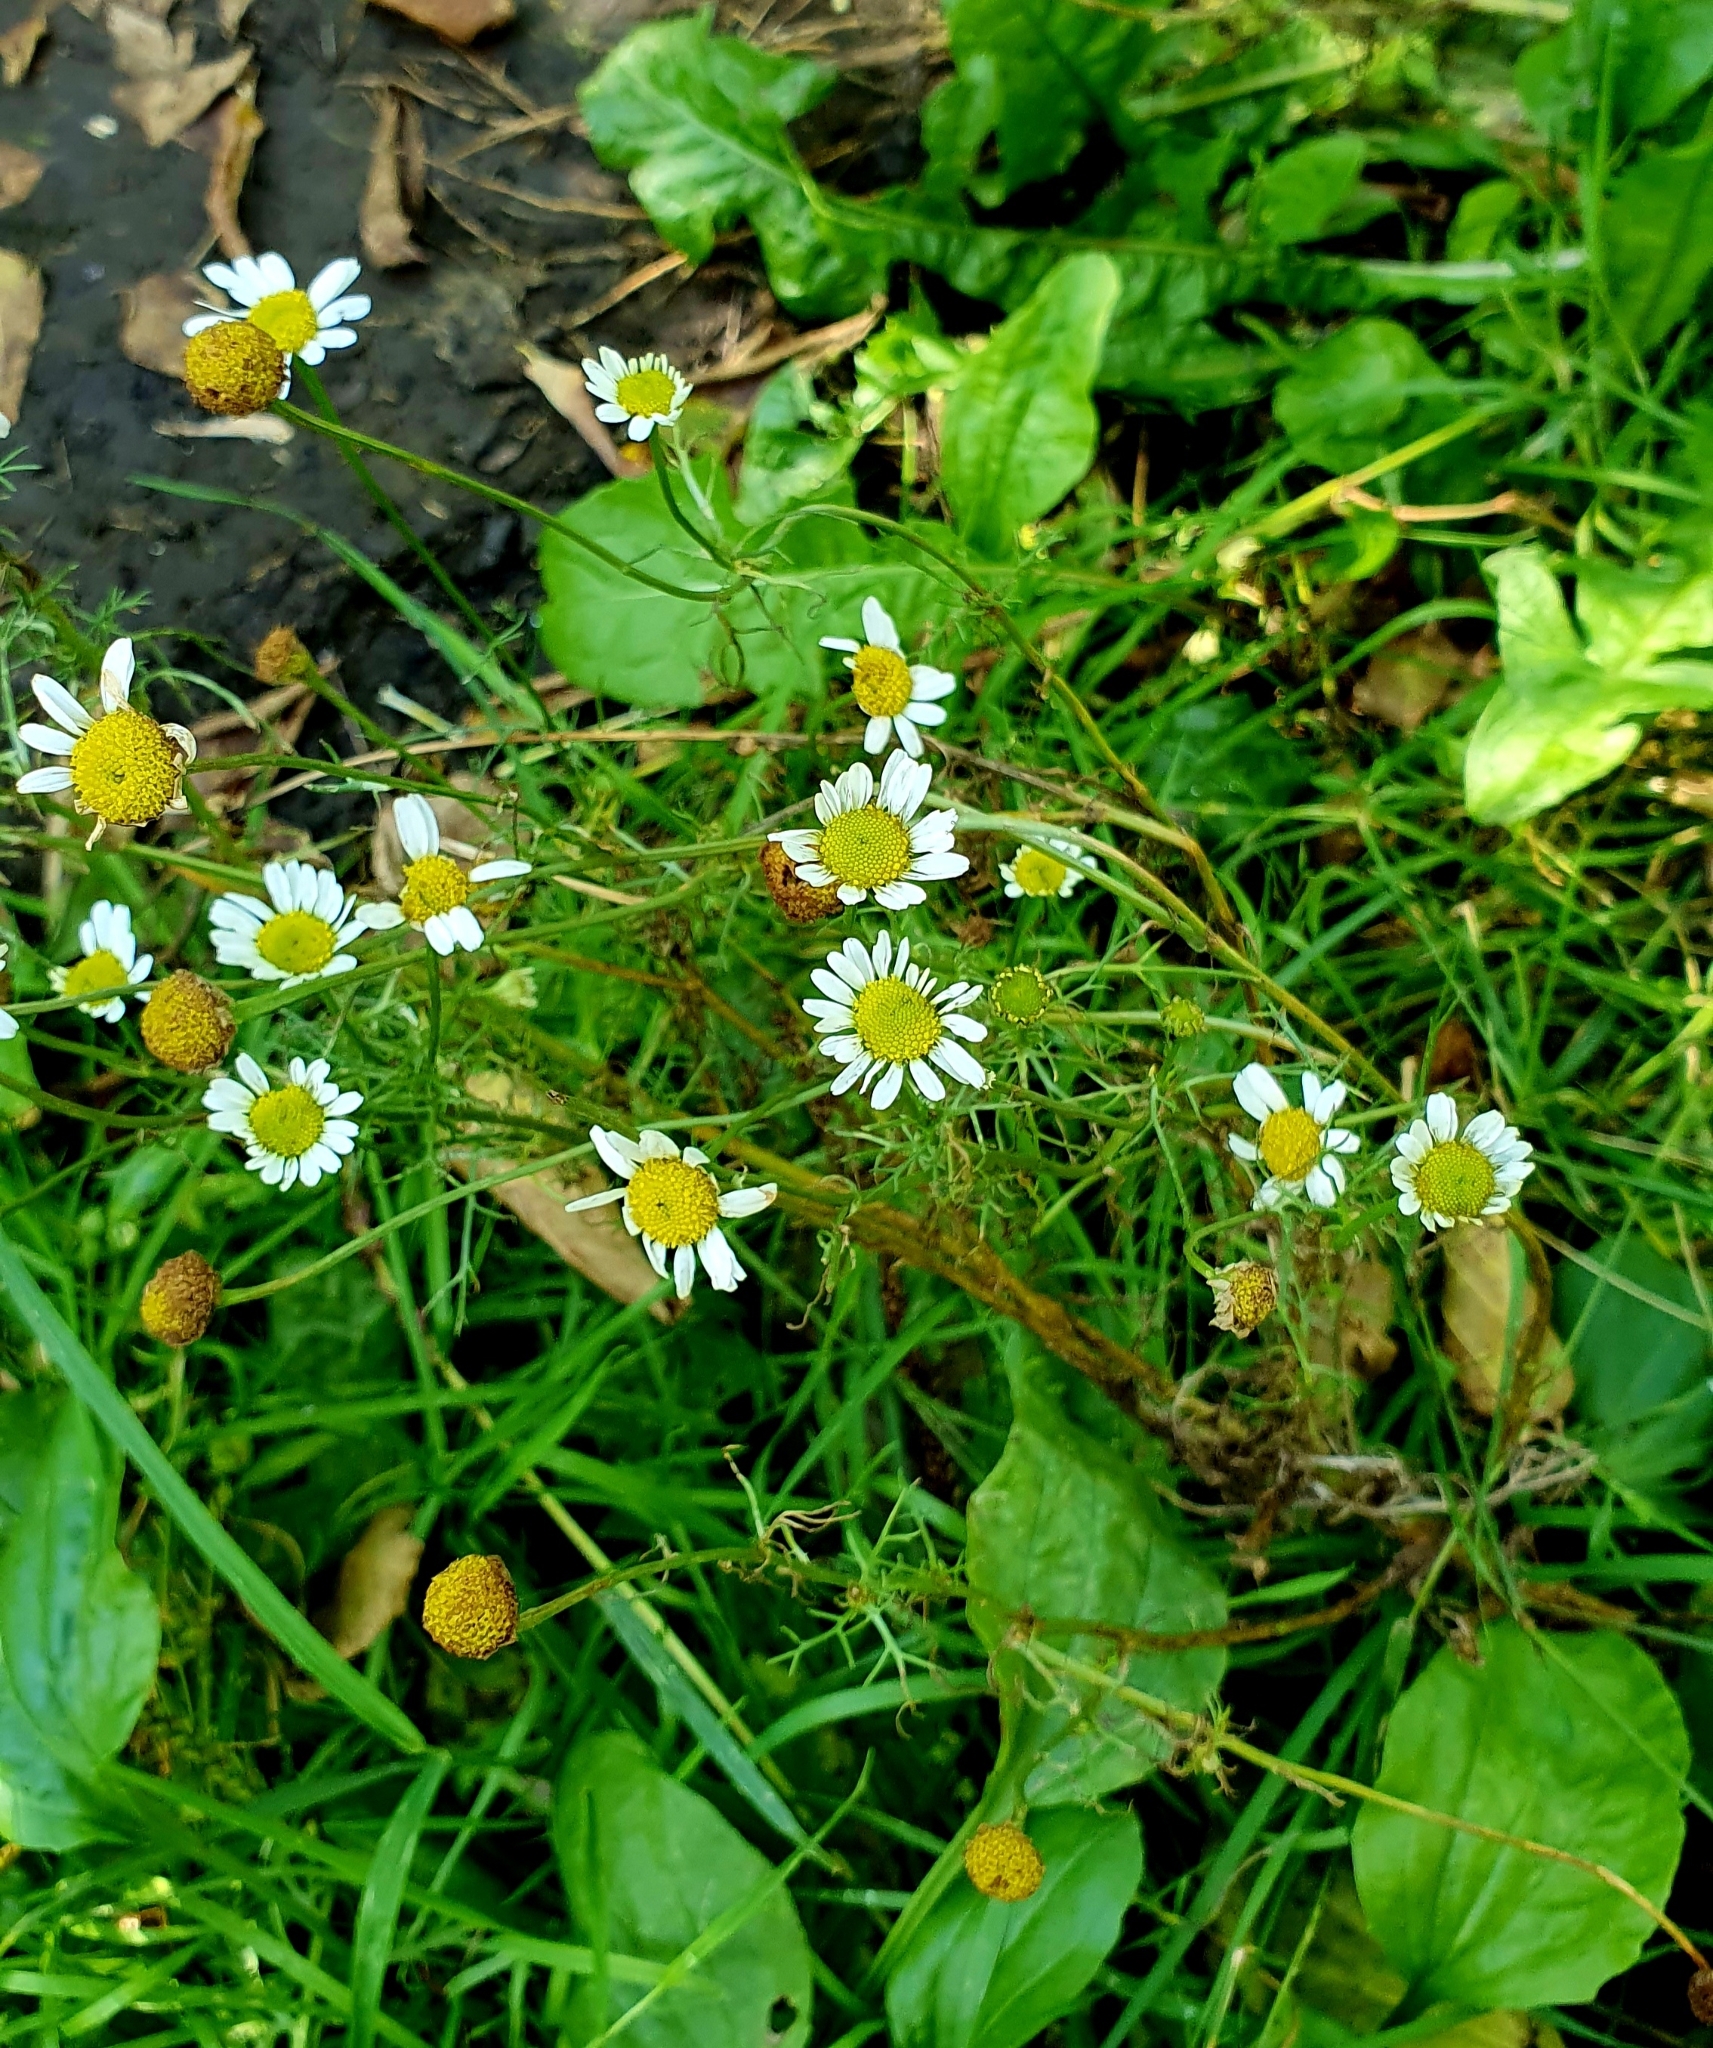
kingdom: Plantae
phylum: Tracheophyta
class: Magnoliopsida
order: Asterales
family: Asteraceae
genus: Tripleurospermum
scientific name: Tripleurospermum inodorum
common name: Scentless mayweed
